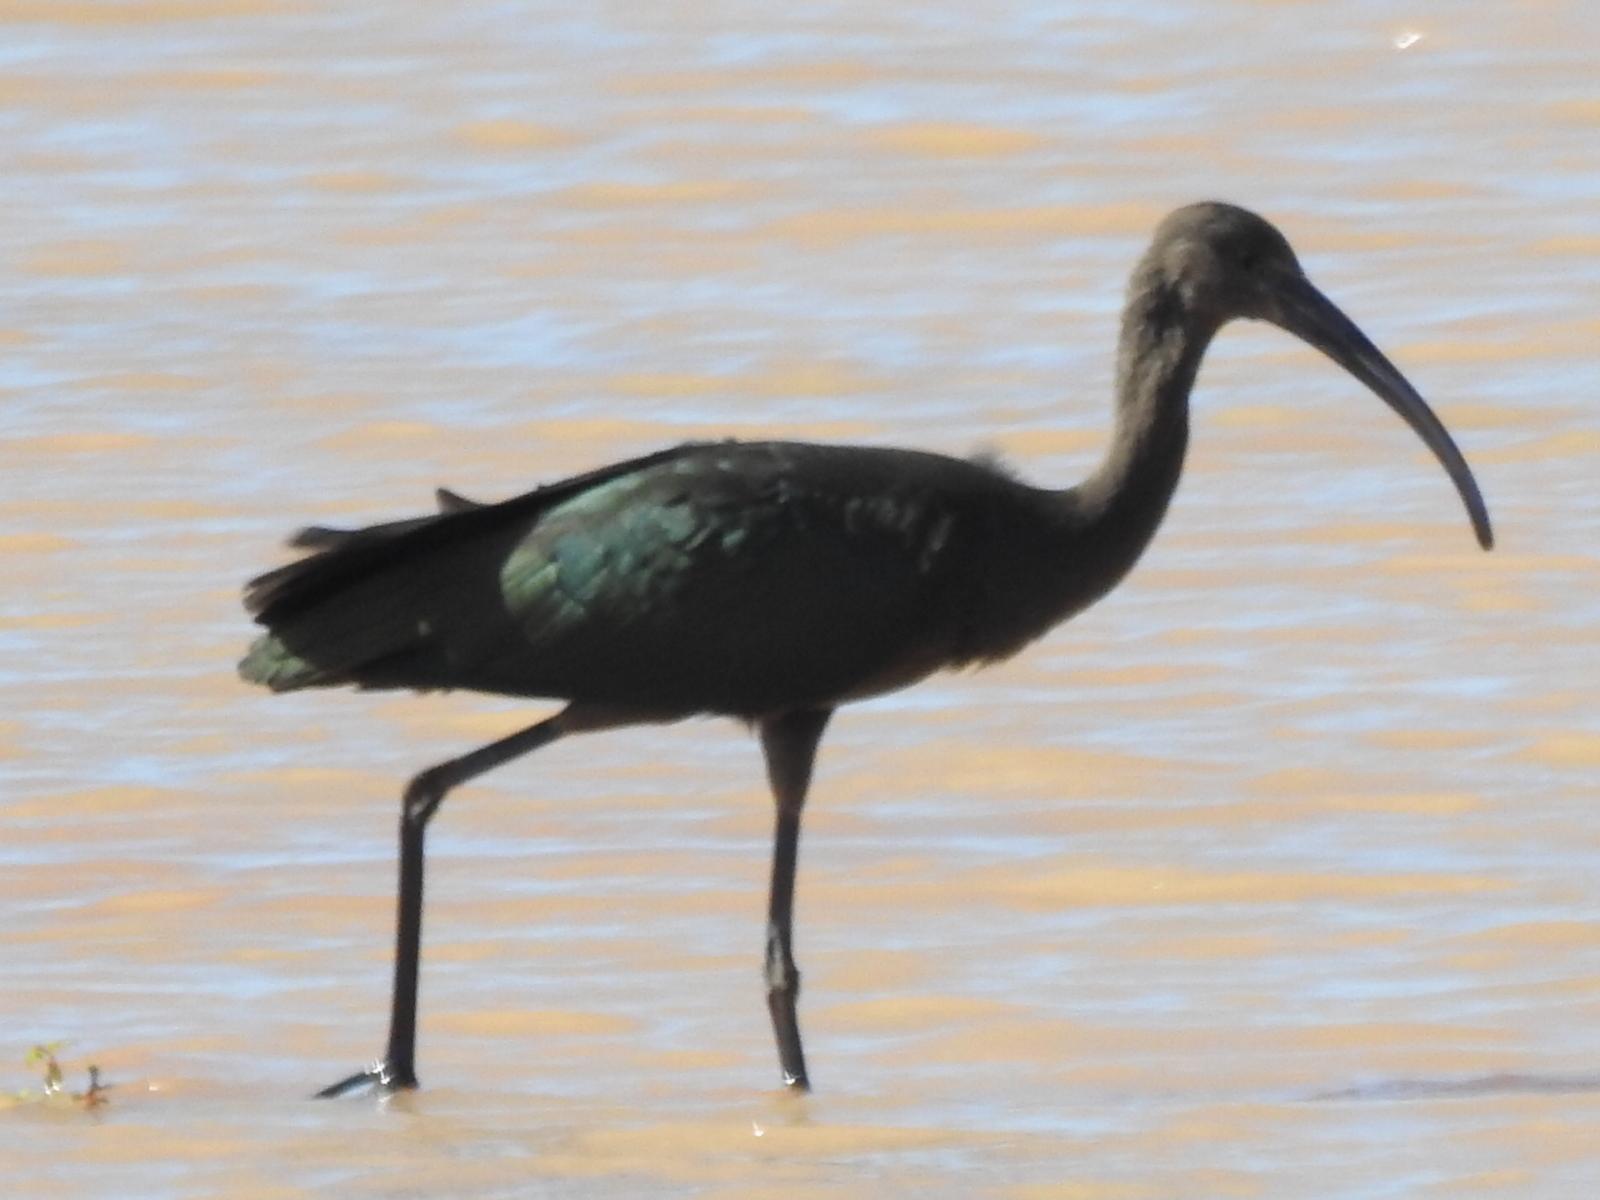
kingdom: Animalia
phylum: Chordata
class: Aves
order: Pelecaniformes
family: Threskiornithidae
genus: Plegadis
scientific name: Plegadis chihi
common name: White-faced ibis
